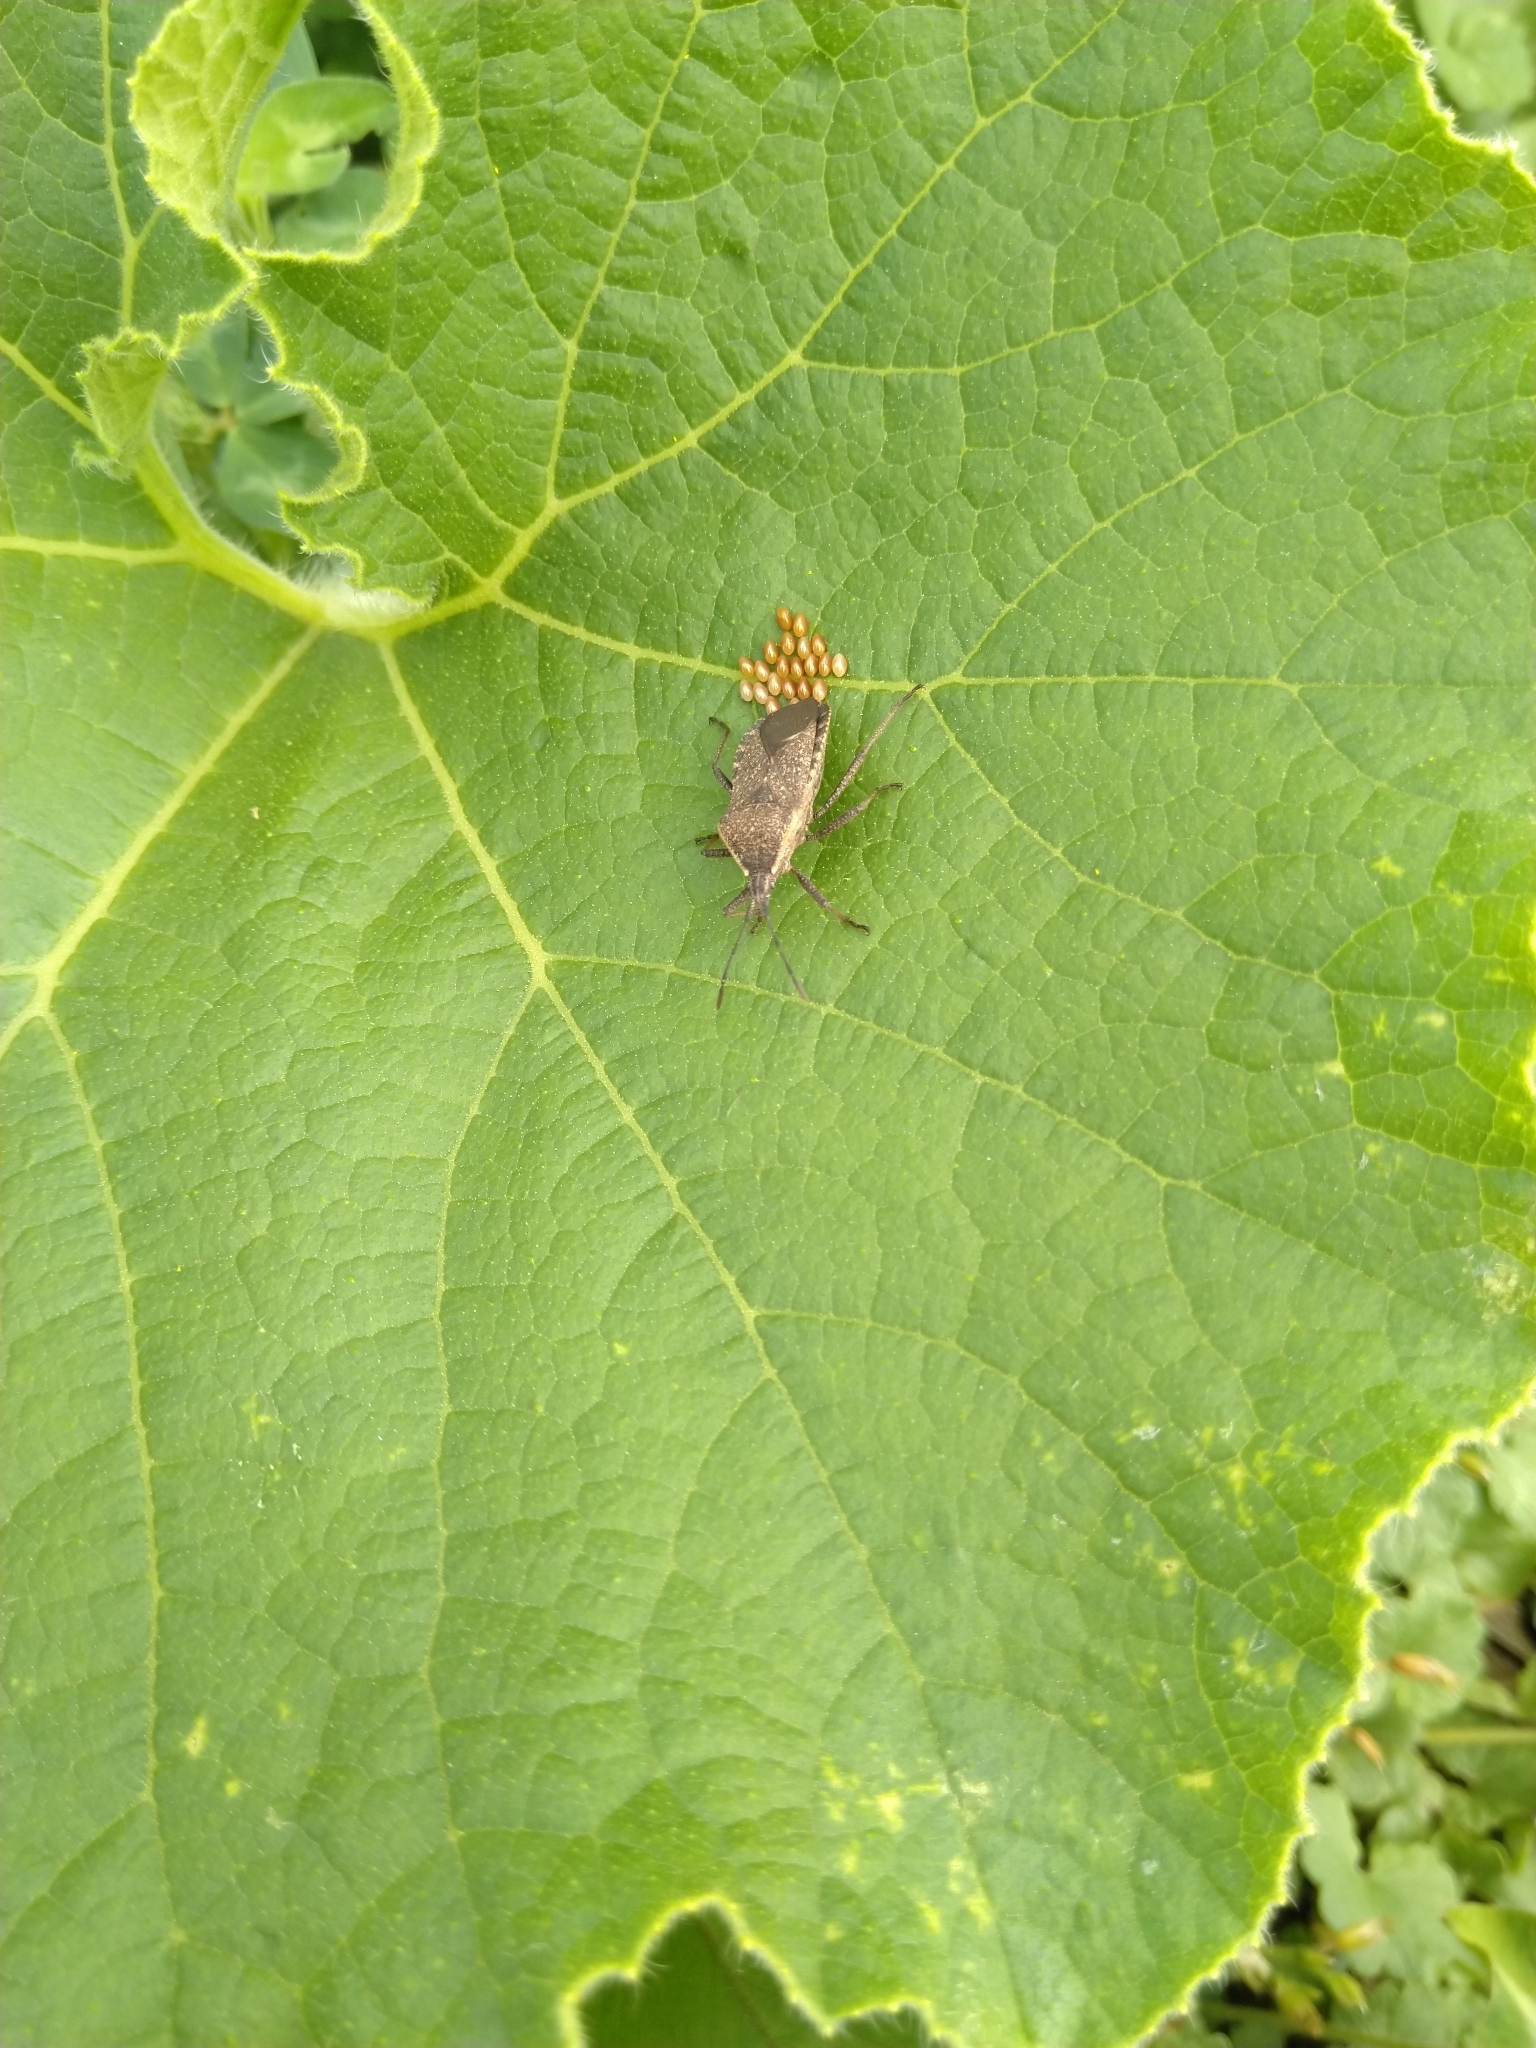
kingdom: Animalia
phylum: Arthropoda
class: Insecta
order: Hemiptera
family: Coreidae
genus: Anasa
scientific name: Anasa tristis
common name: Squash bug
